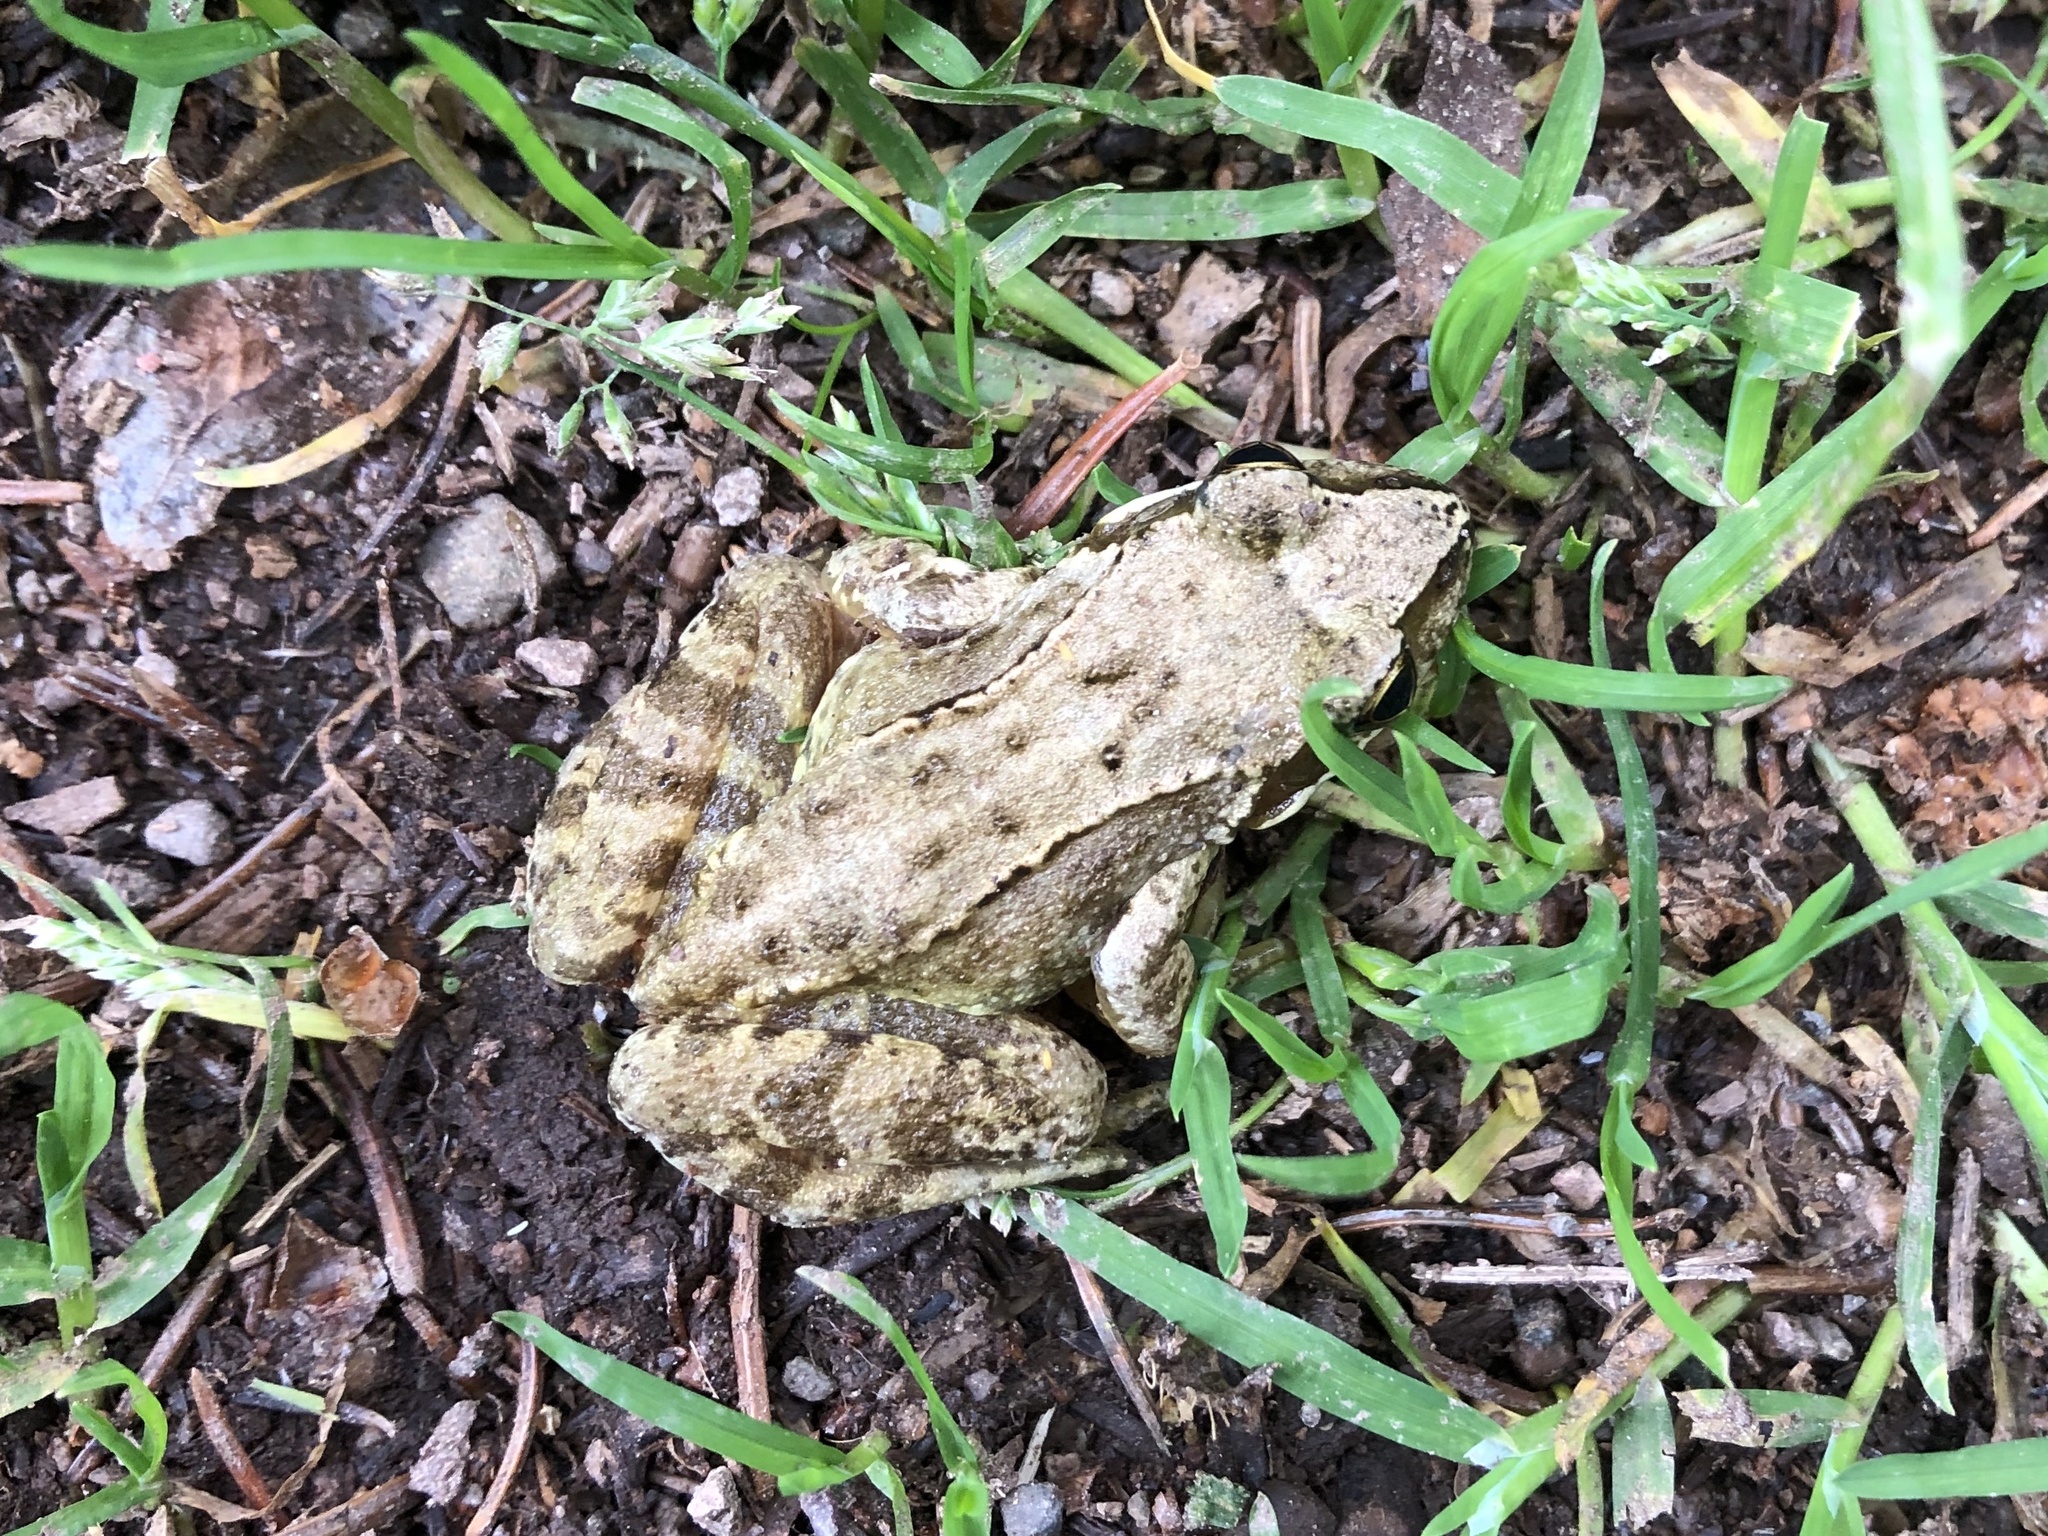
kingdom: Animalia
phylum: Chordata
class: Amphibia
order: Anura
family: Ranidae
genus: Rana
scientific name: Rana temporaria
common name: Common frog
